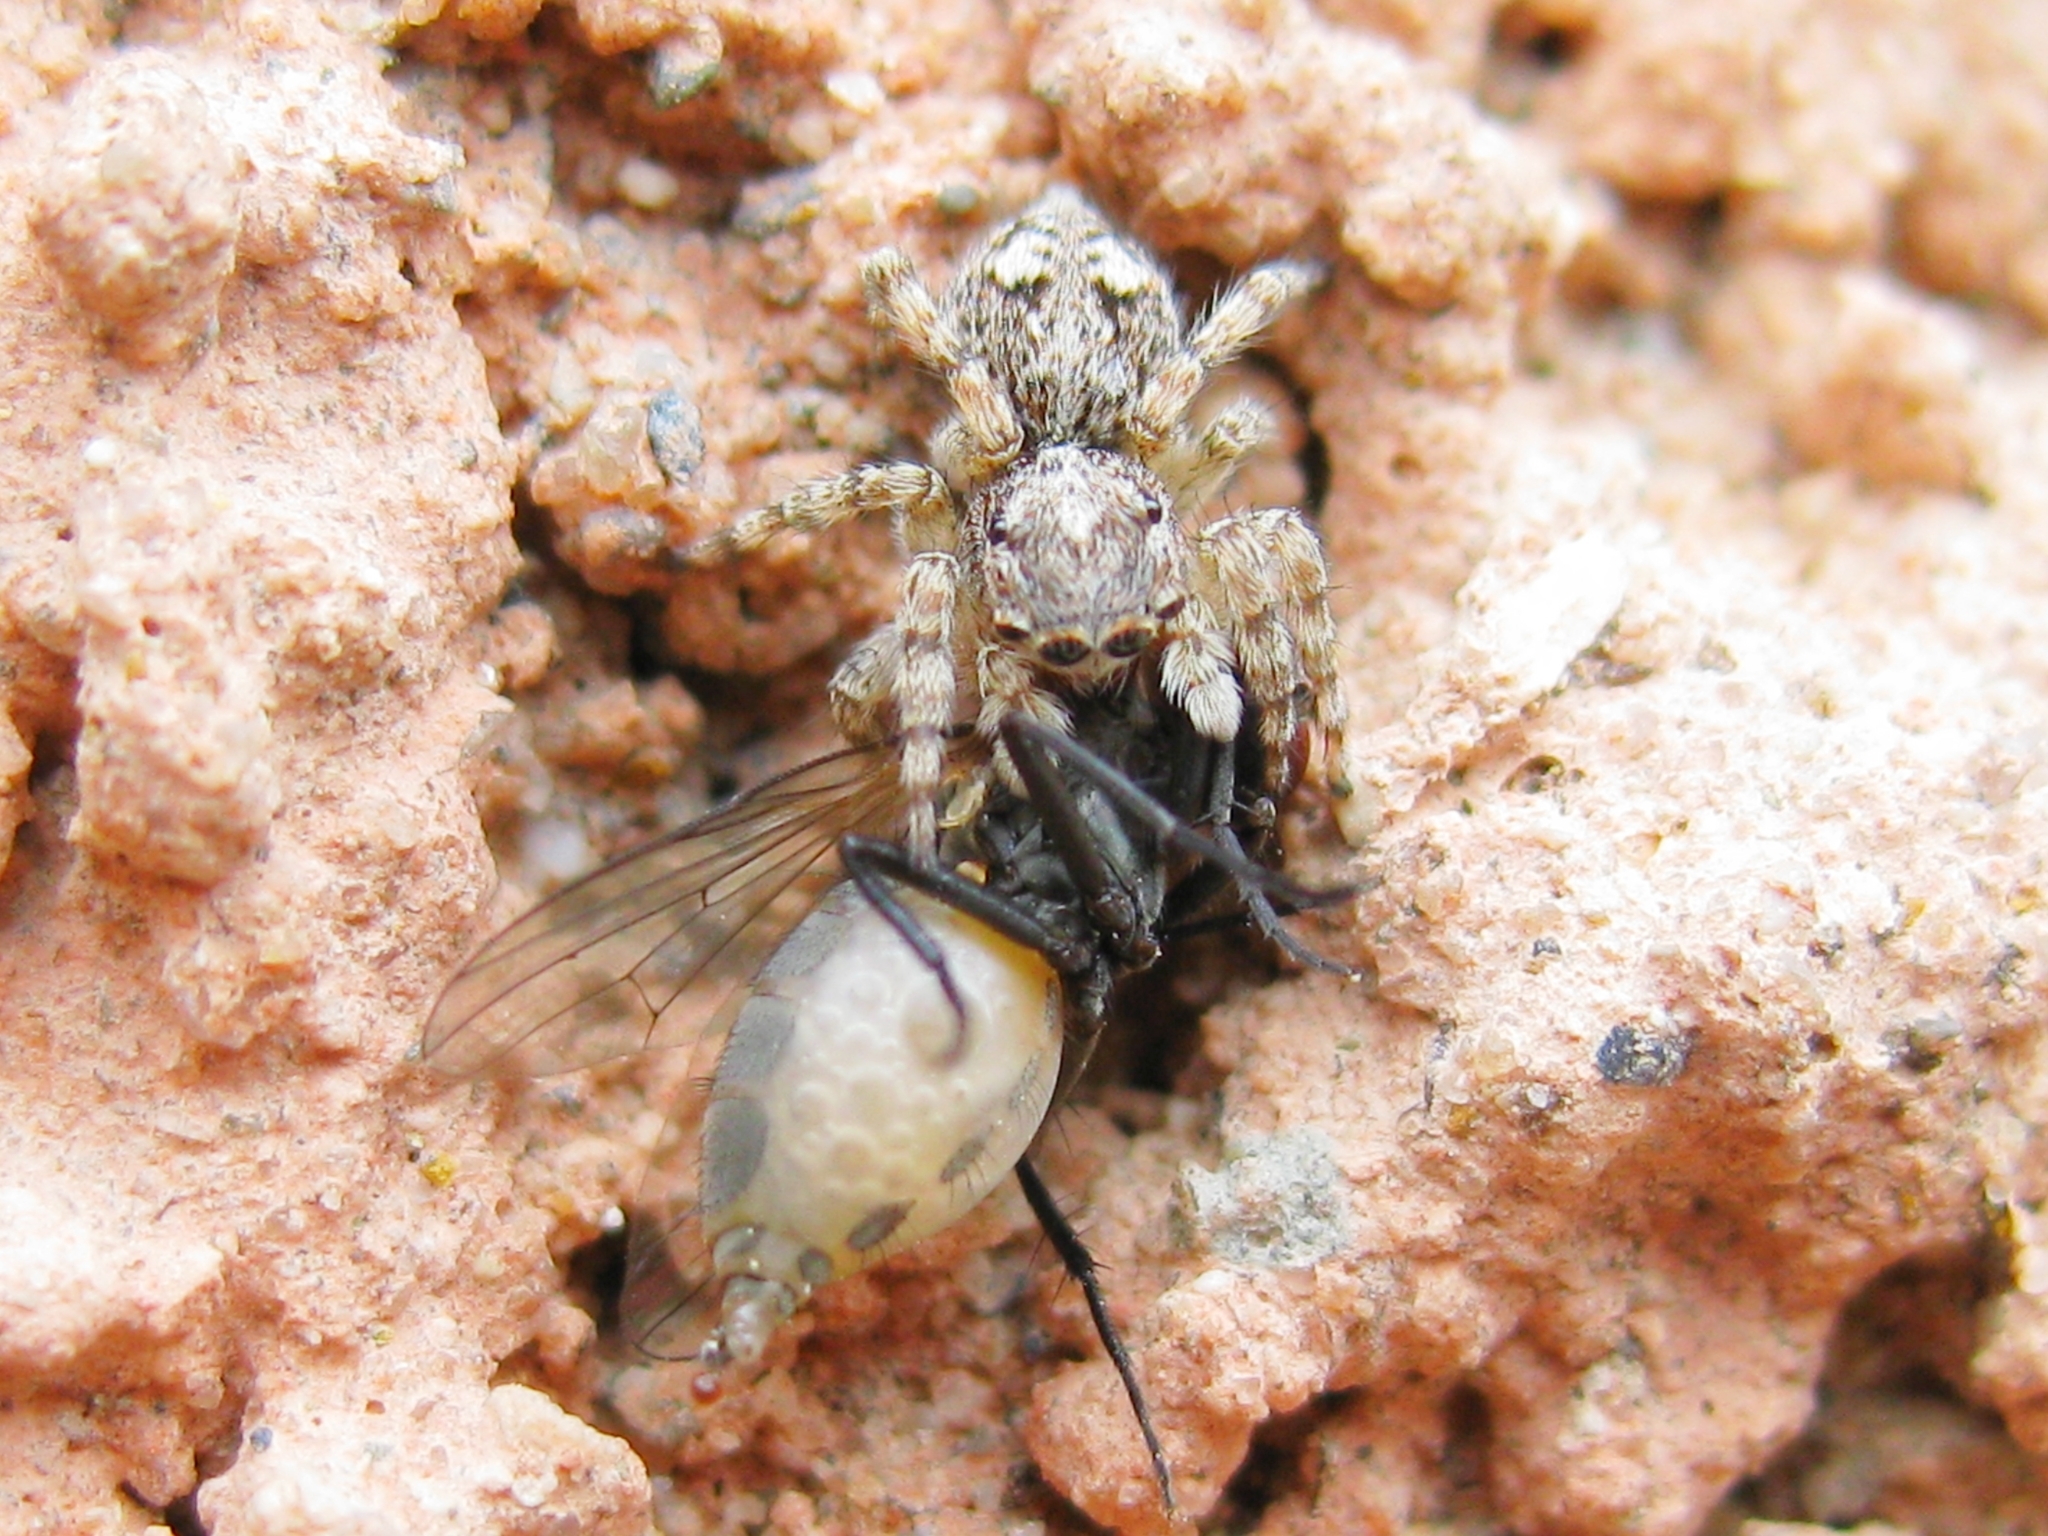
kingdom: Animalia
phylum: Arthropoda
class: Arachnida
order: Araneae
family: Salticidae
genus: Attulus
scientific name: Attulus relictarius
